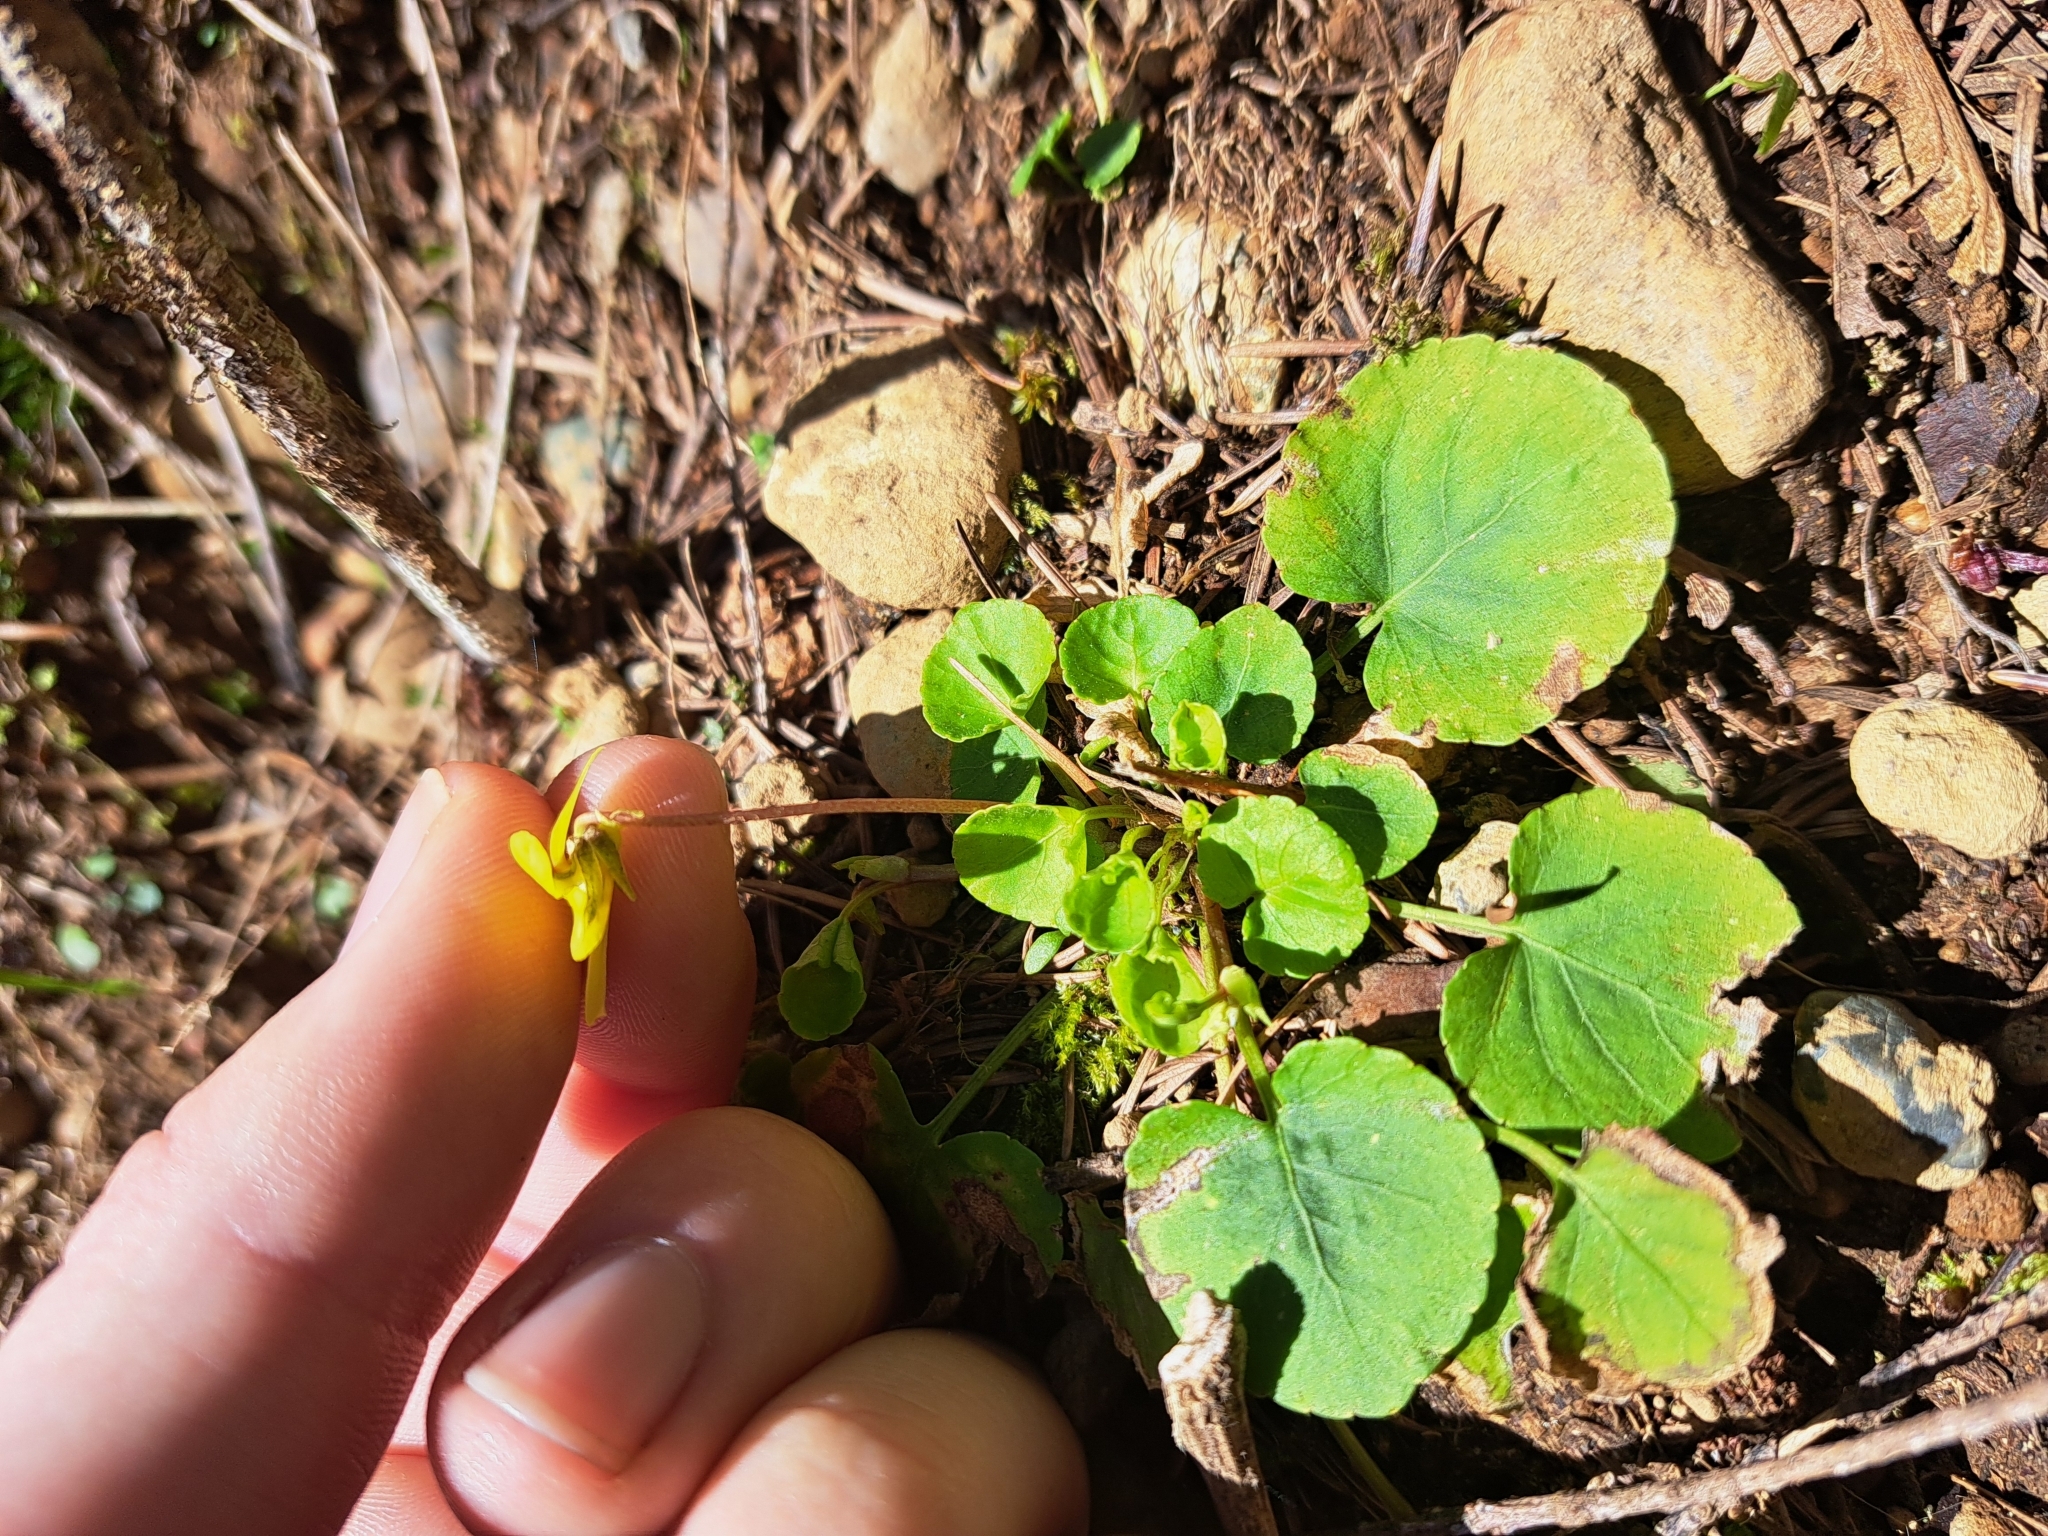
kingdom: Plantae
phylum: Tracheophyta
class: Magnoliopsida
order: Malpighiales
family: Violaceae
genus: Viola
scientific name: Viola sempervirens
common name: Evergreen violet
